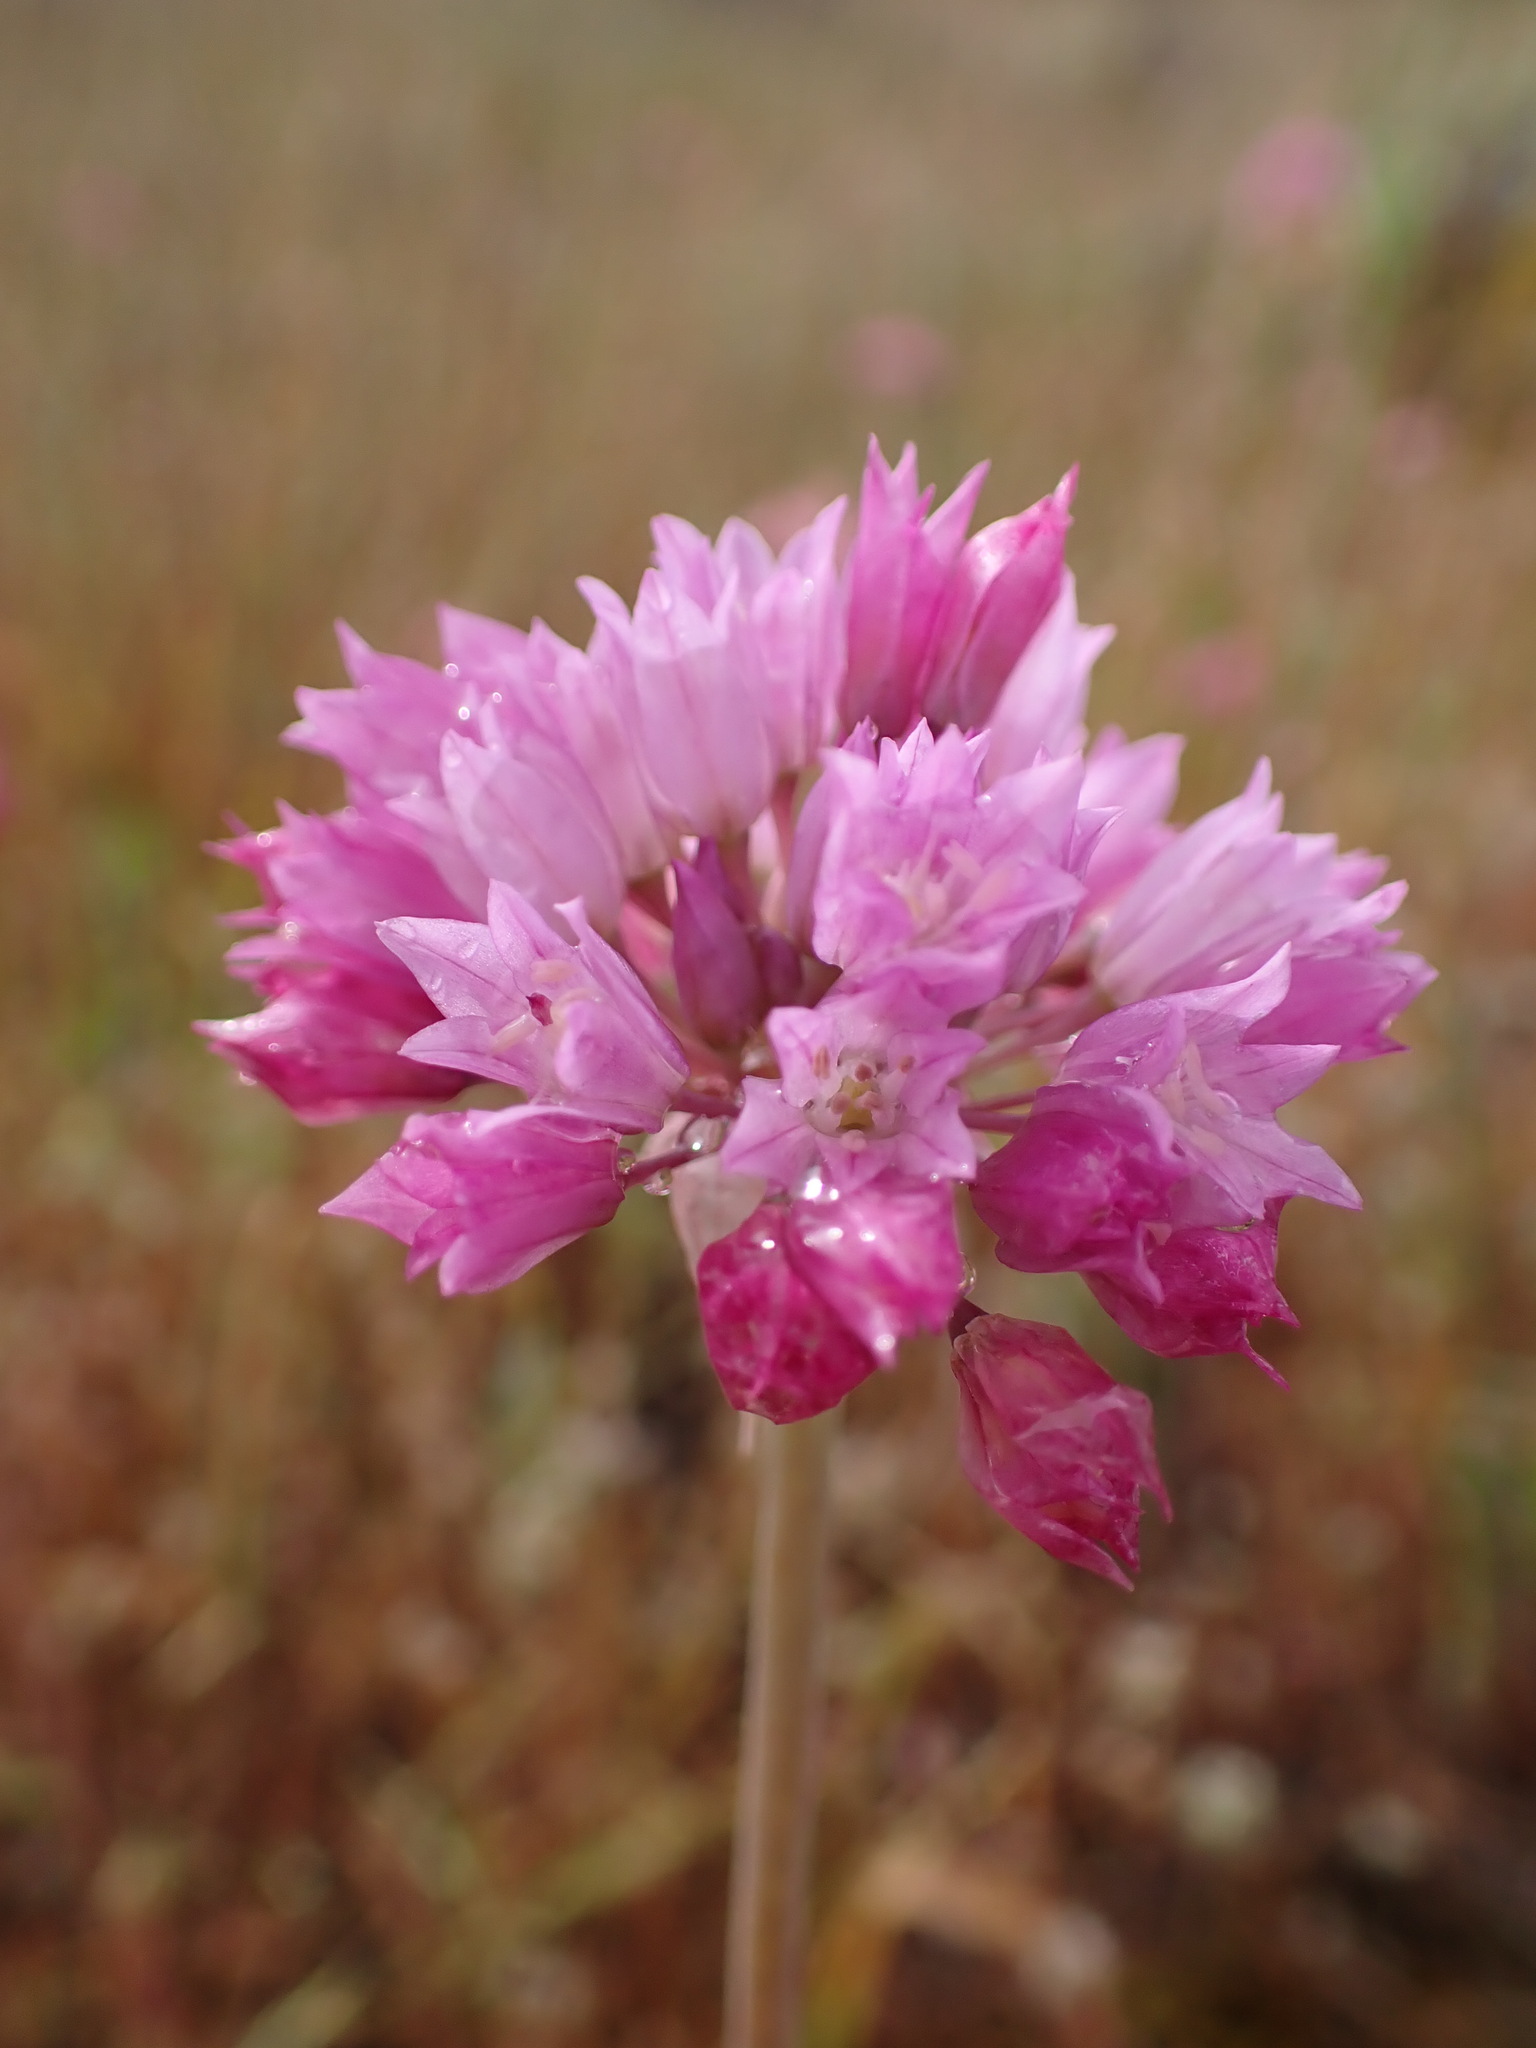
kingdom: Plantae
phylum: Tracheophyta
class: Liliopsida
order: Asparagales
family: Amaryllidaceae
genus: Allium
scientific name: Allium serra
